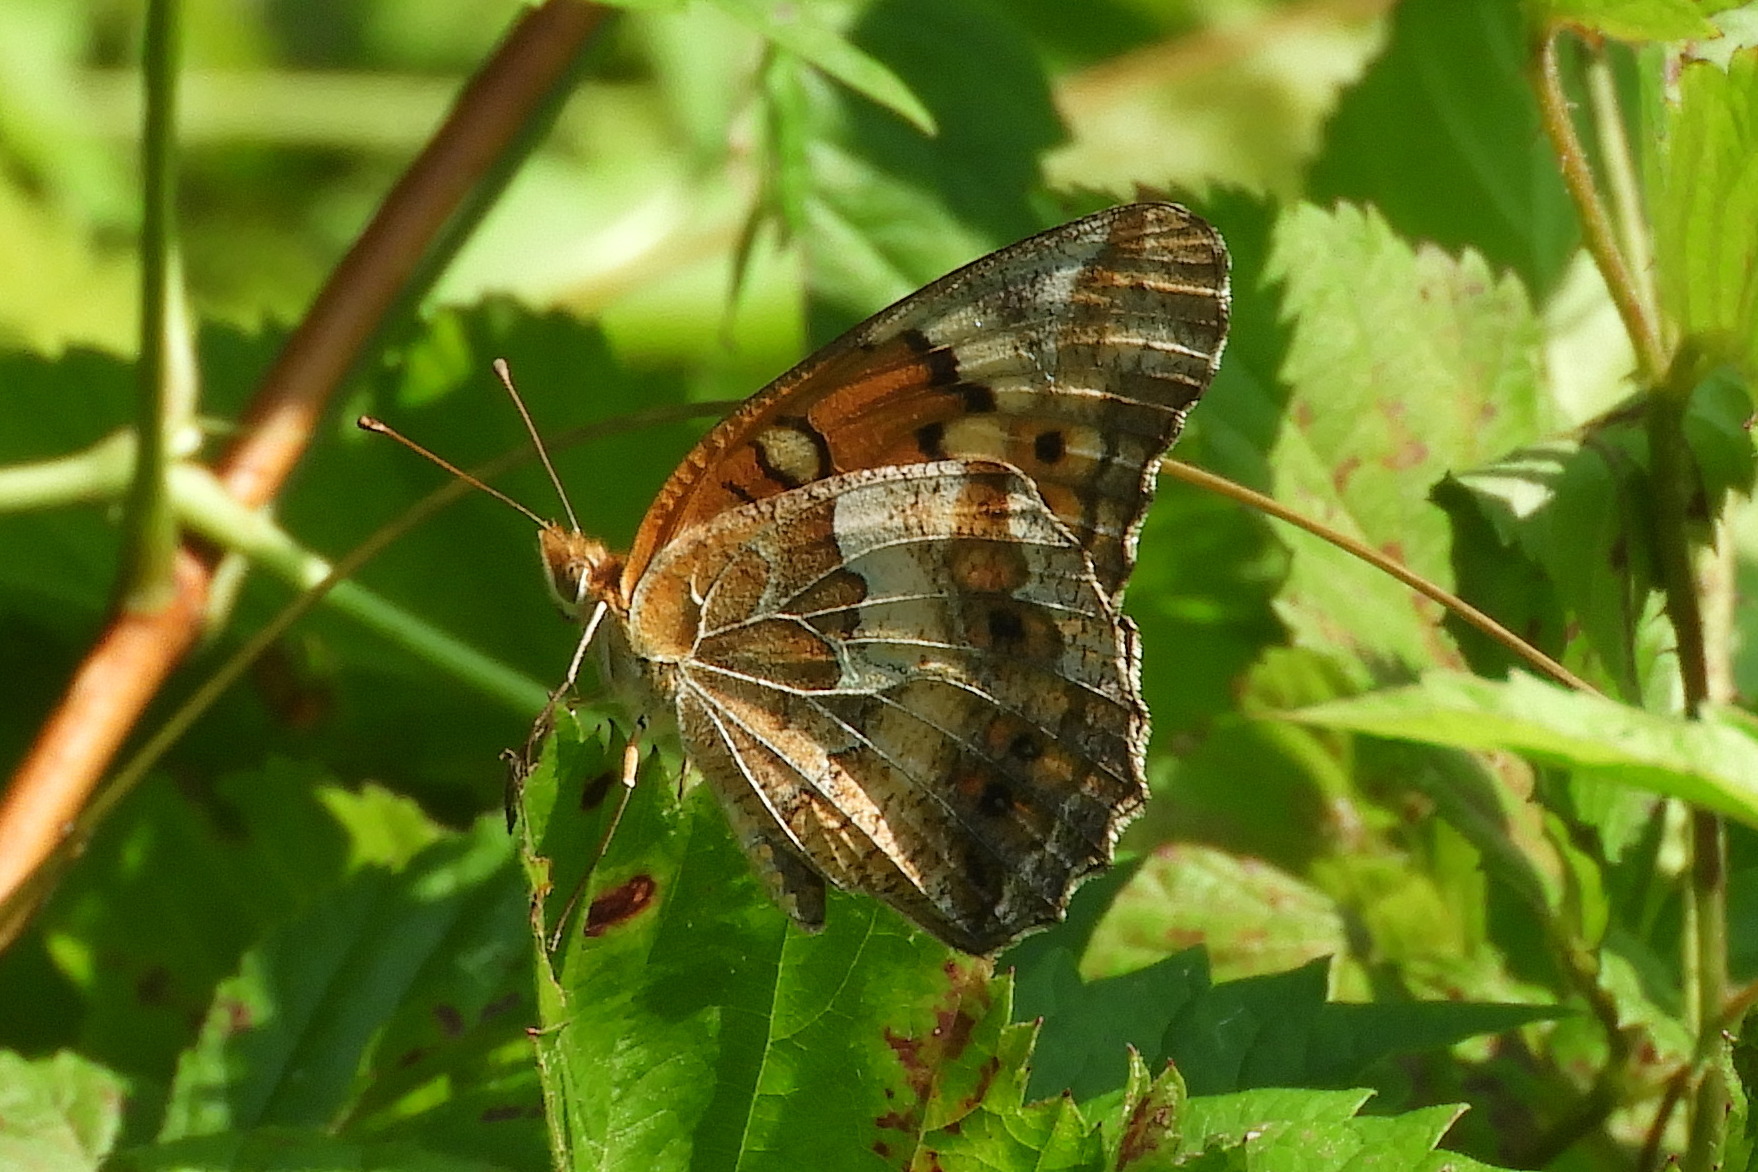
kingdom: Animalia
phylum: Arthropoda
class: Insecta
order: Lepidoptera
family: Nymphalidae
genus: Euptoieta
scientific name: Euptoieta claudia
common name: Variegated fritillary
